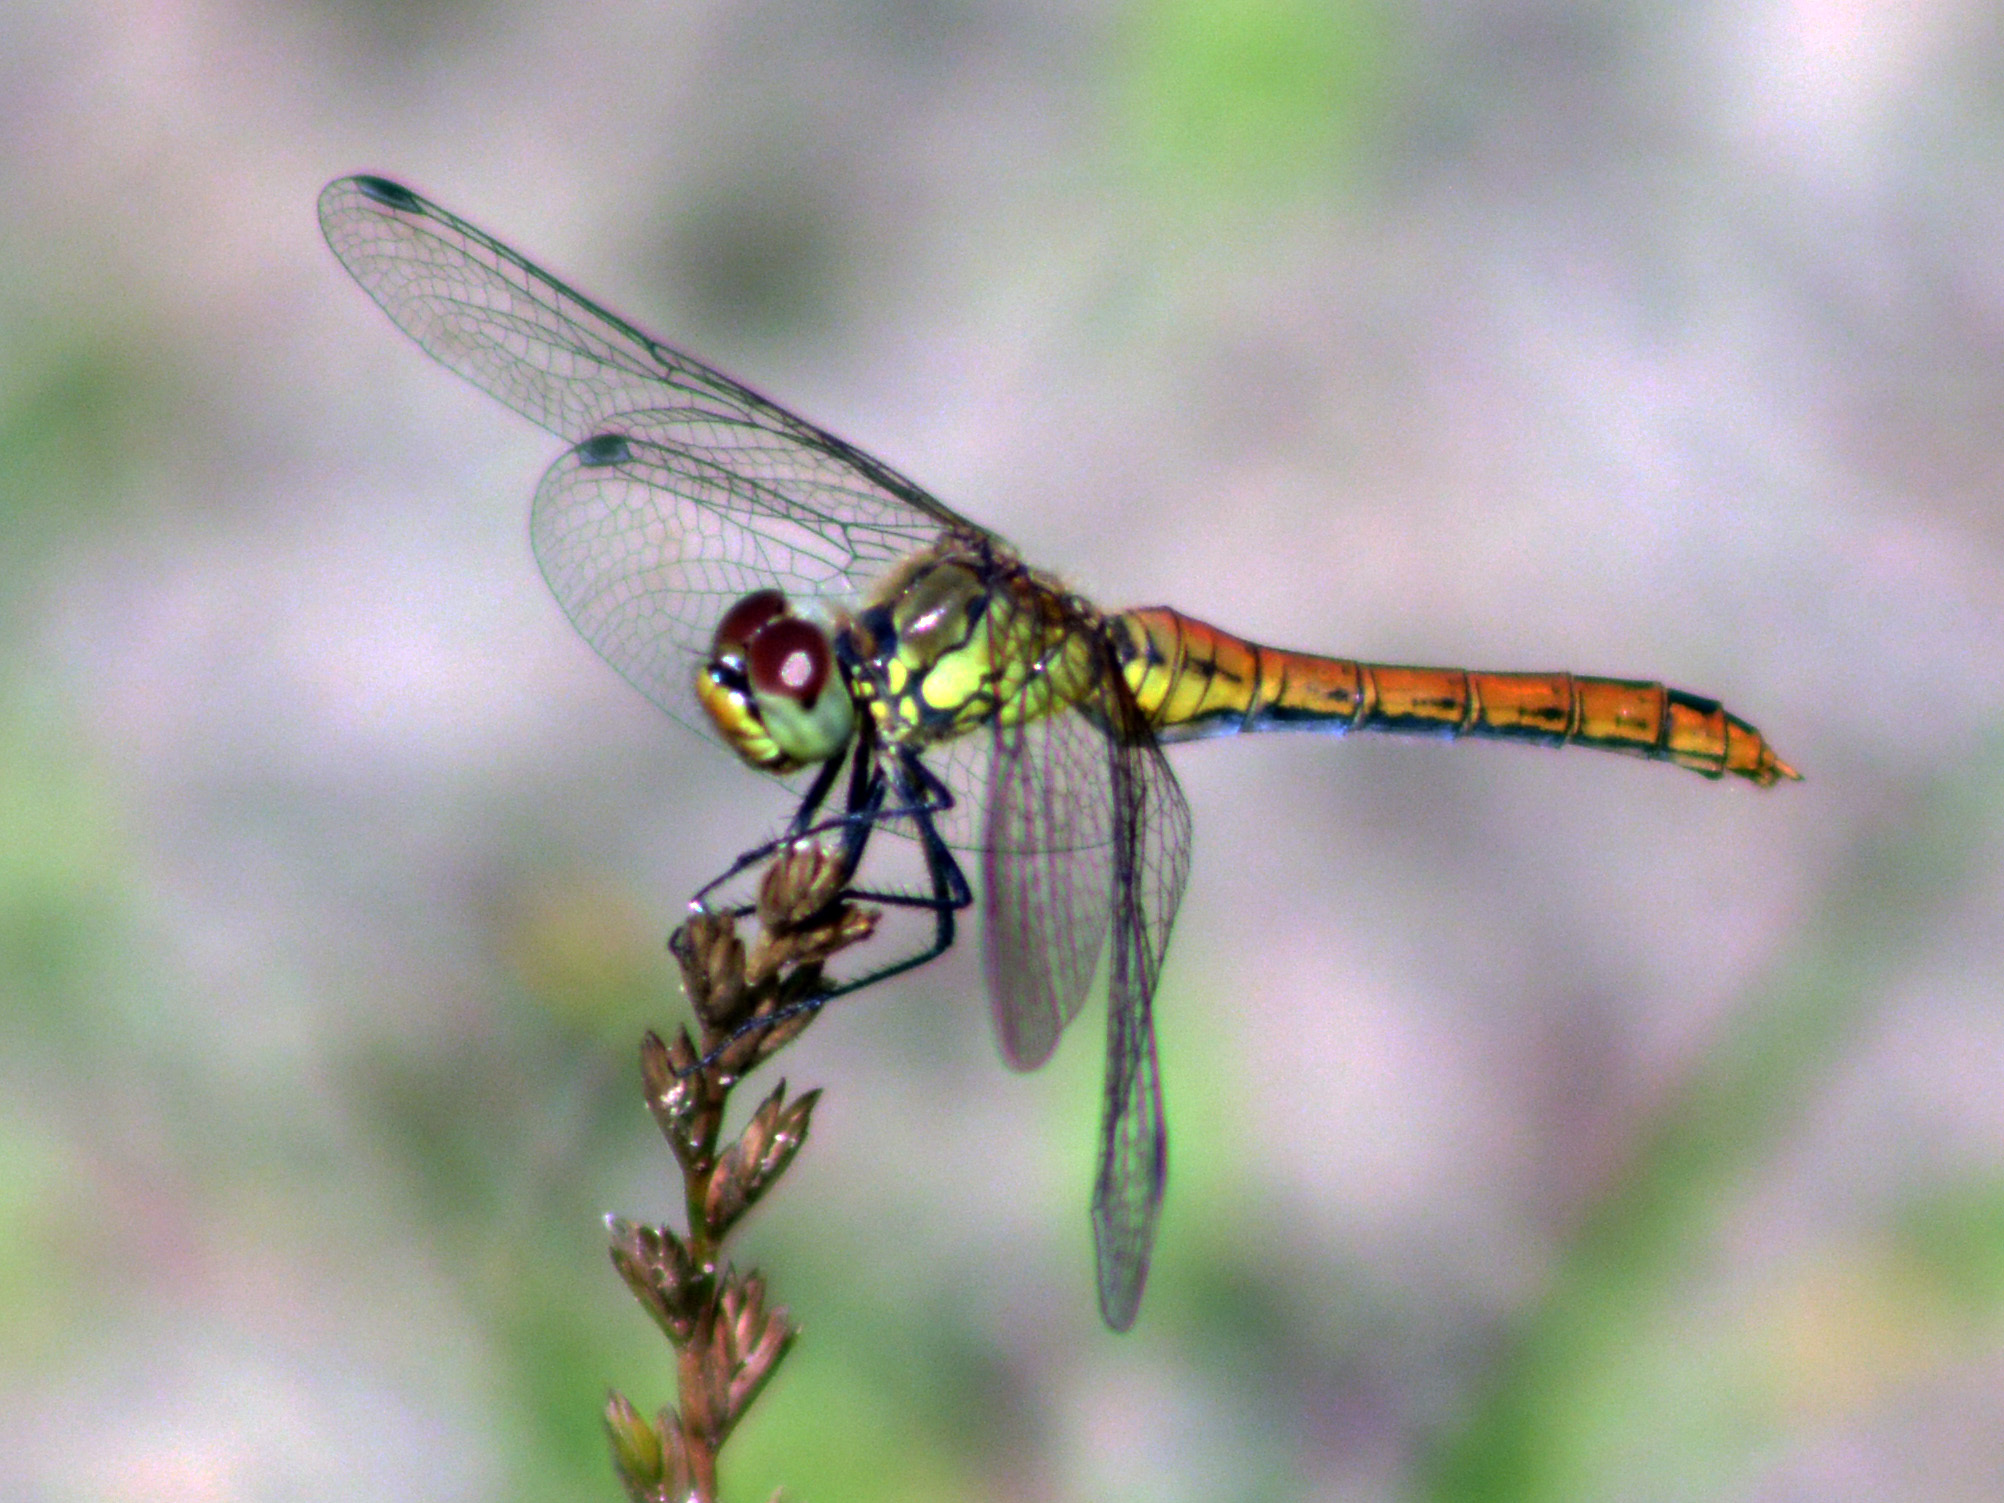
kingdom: Animalia
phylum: Arthropoda
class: Insecta
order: Odonata
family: Libellulidae
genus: Sympetrum
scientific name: Sympetrum sanguineum
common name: Ruddy darter
